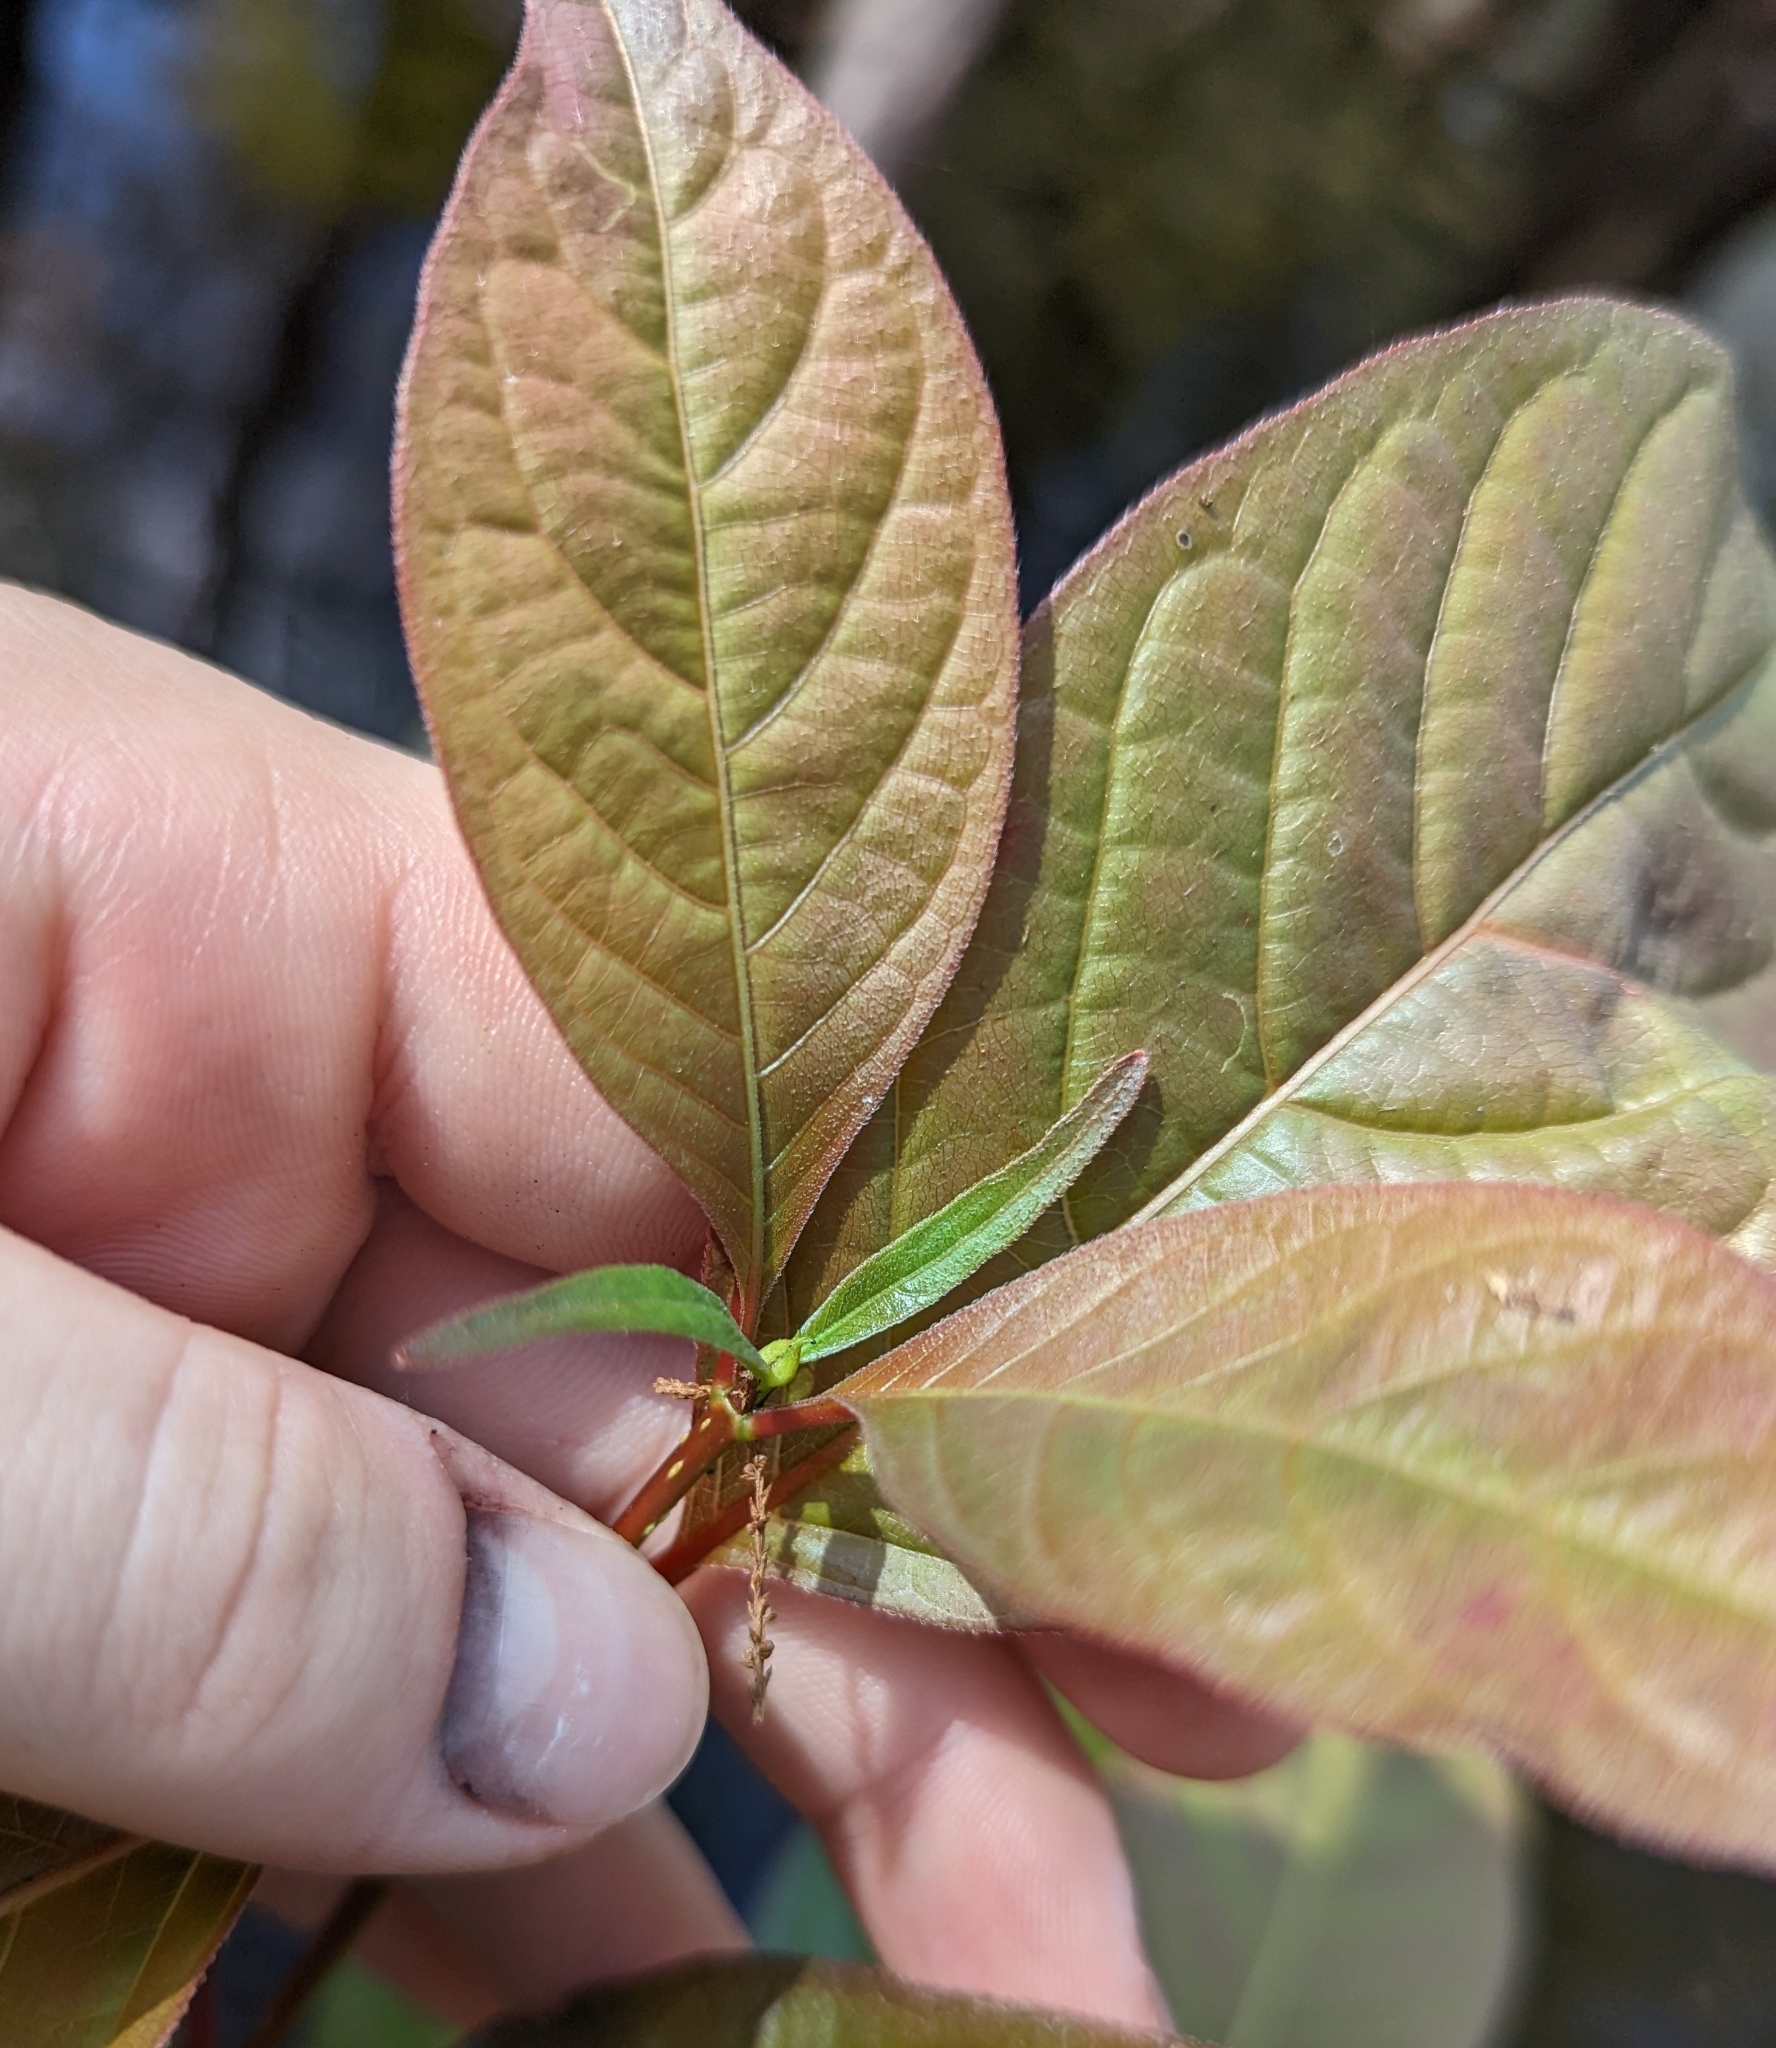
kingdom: Plantae
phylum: Tracheophyta
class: Magnoliopsida
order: Gentianales
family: Rubiaceae
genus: Cephalanthus
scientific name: Cephalanthus occidentalis
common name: Button-willow
